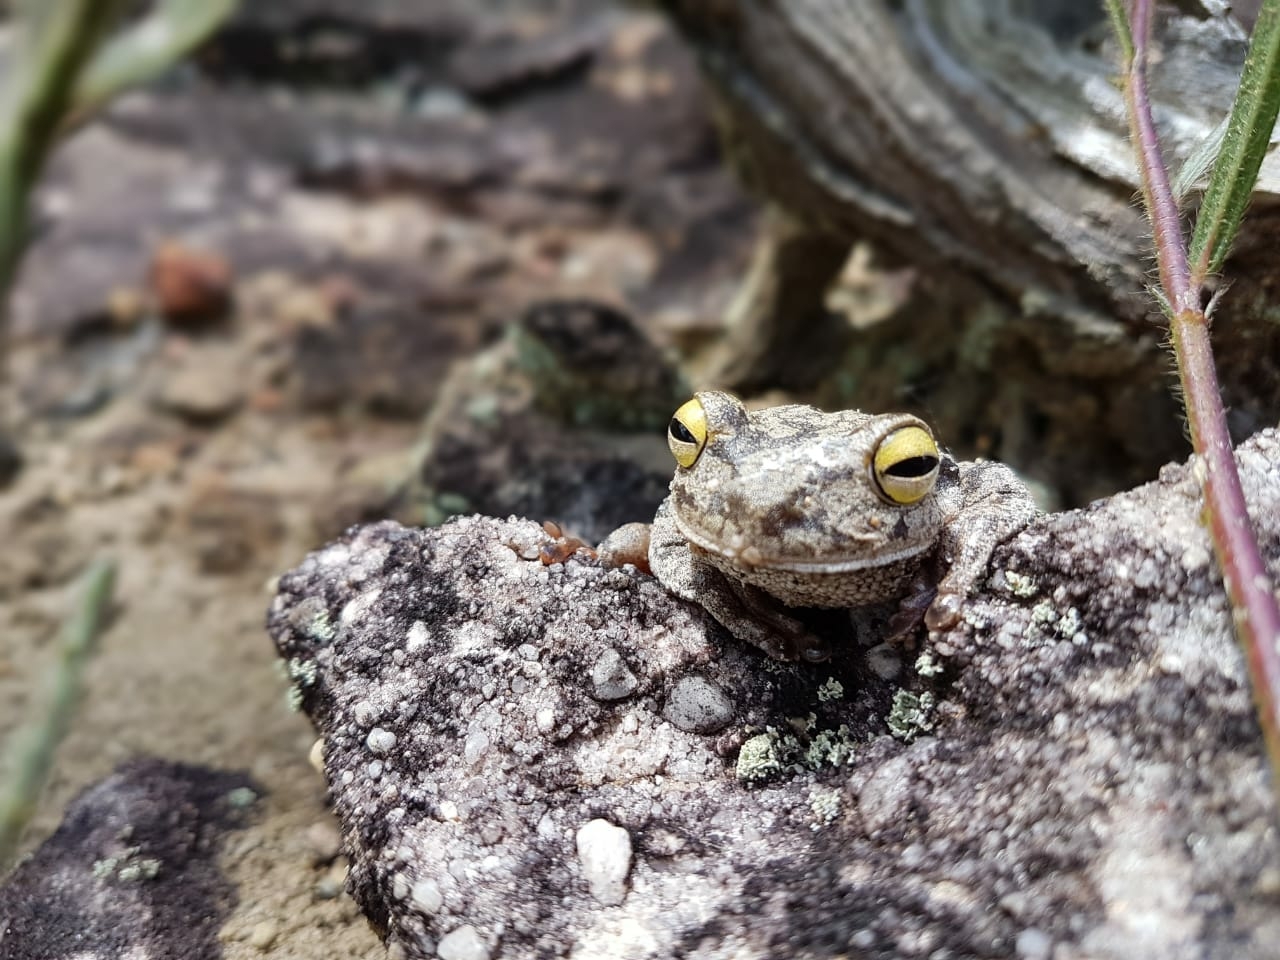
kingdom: Animalia
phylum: Chordata
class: Amphibia
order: Anura
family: Hylidae
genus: Bokermannohyla
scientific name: Bokermannohyla itapoty
